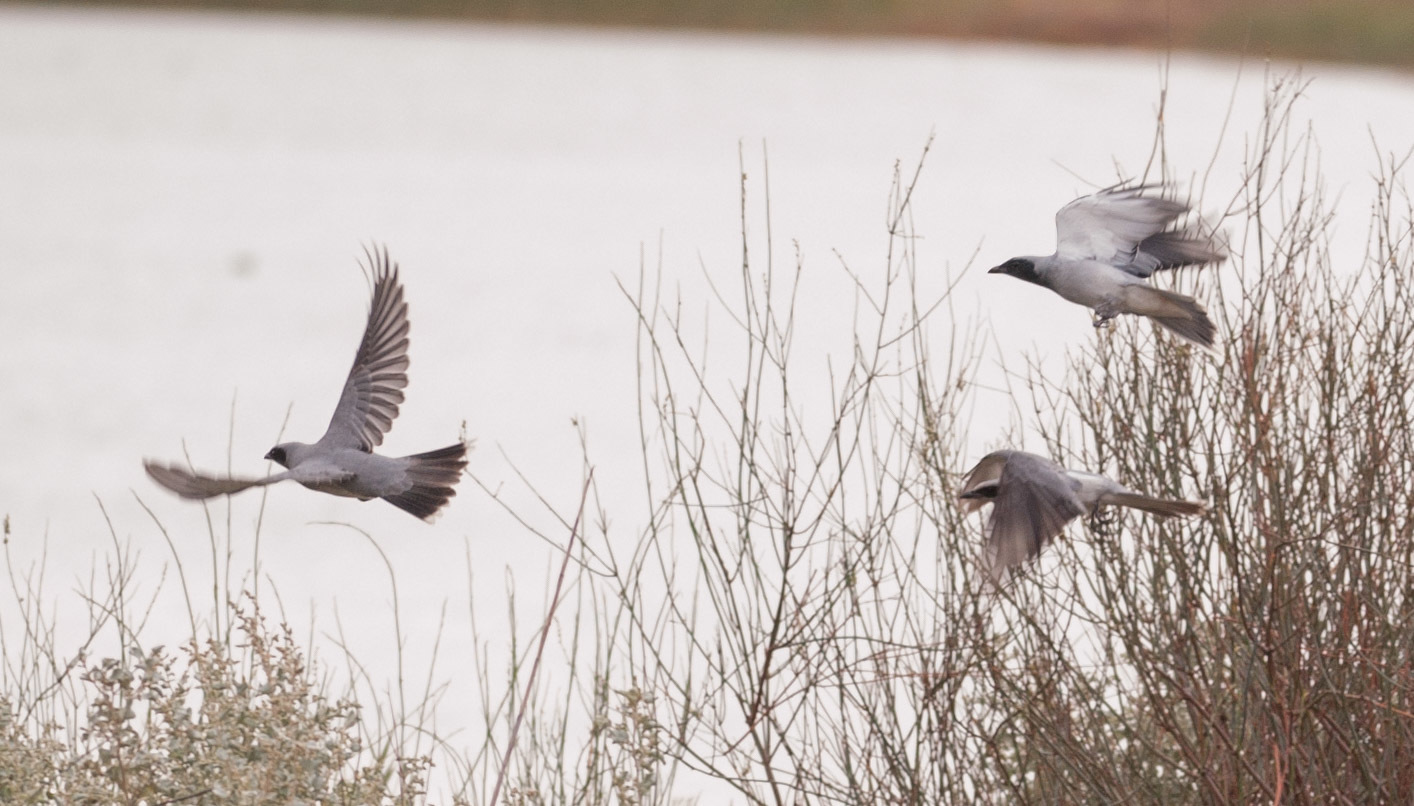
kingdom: Animalia
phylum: Chordata
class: Aves
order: Passeriformes
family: Campephagidae
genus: Coracina
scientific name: Coracina novaehollandiae
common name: Black-faced cuckooshrike
